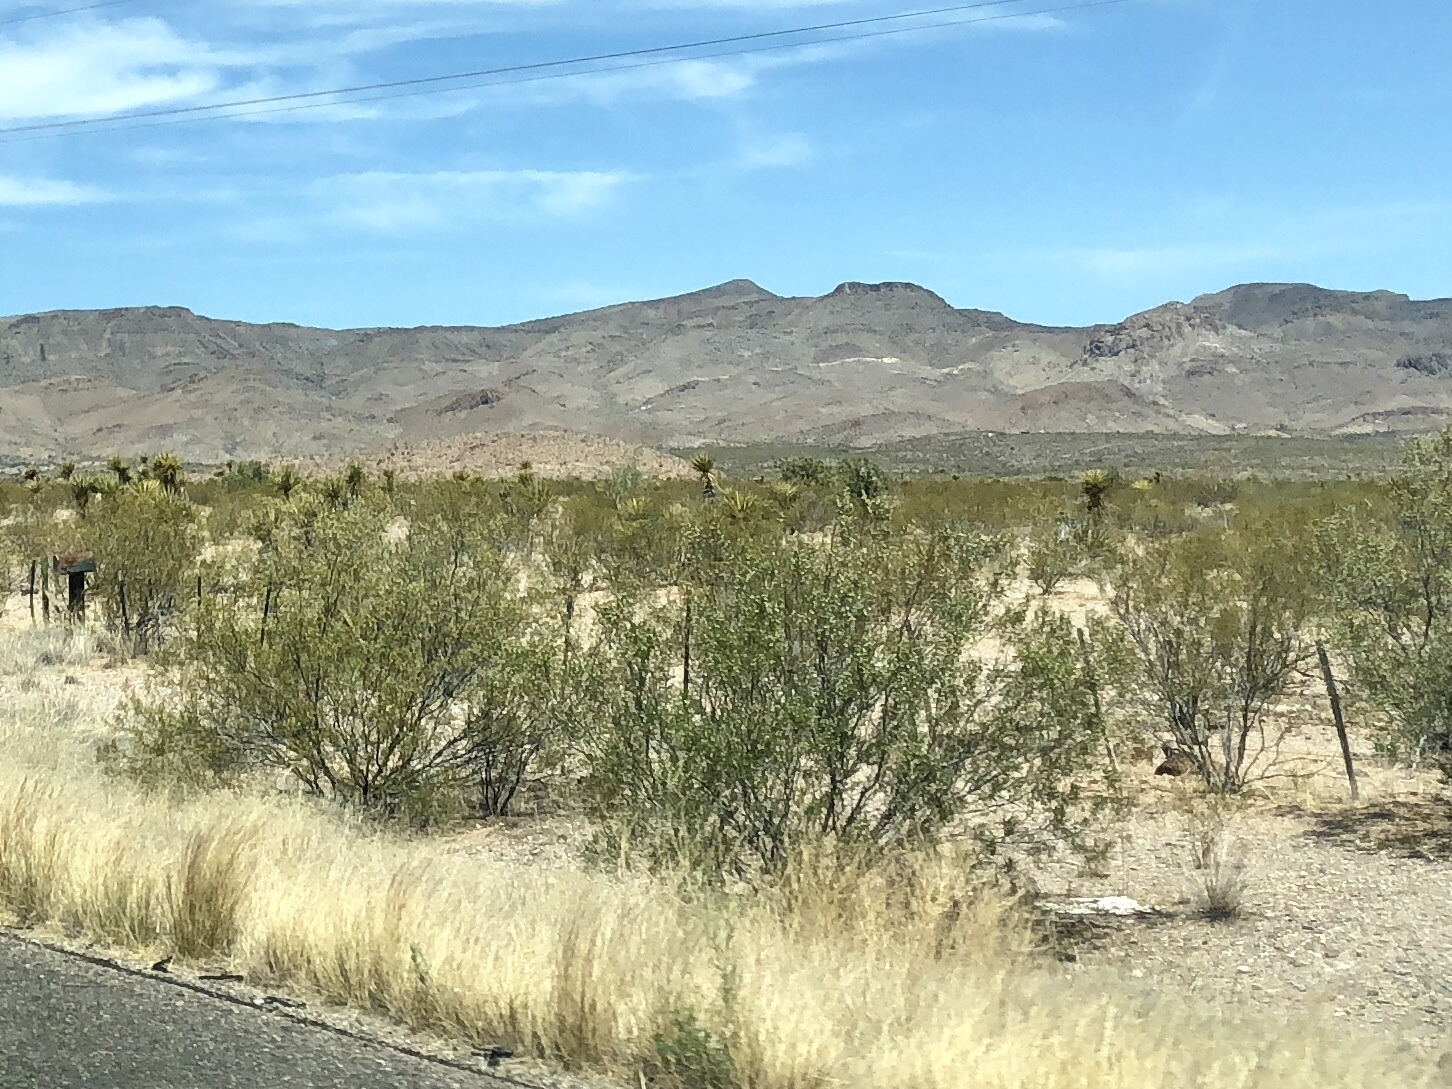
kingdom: Plantae
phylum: Tracheophyta
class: Magnoliopsida
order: Zygophyllales
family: Zygophyllaceae
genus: Larrea
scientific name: Larrea tridentata
